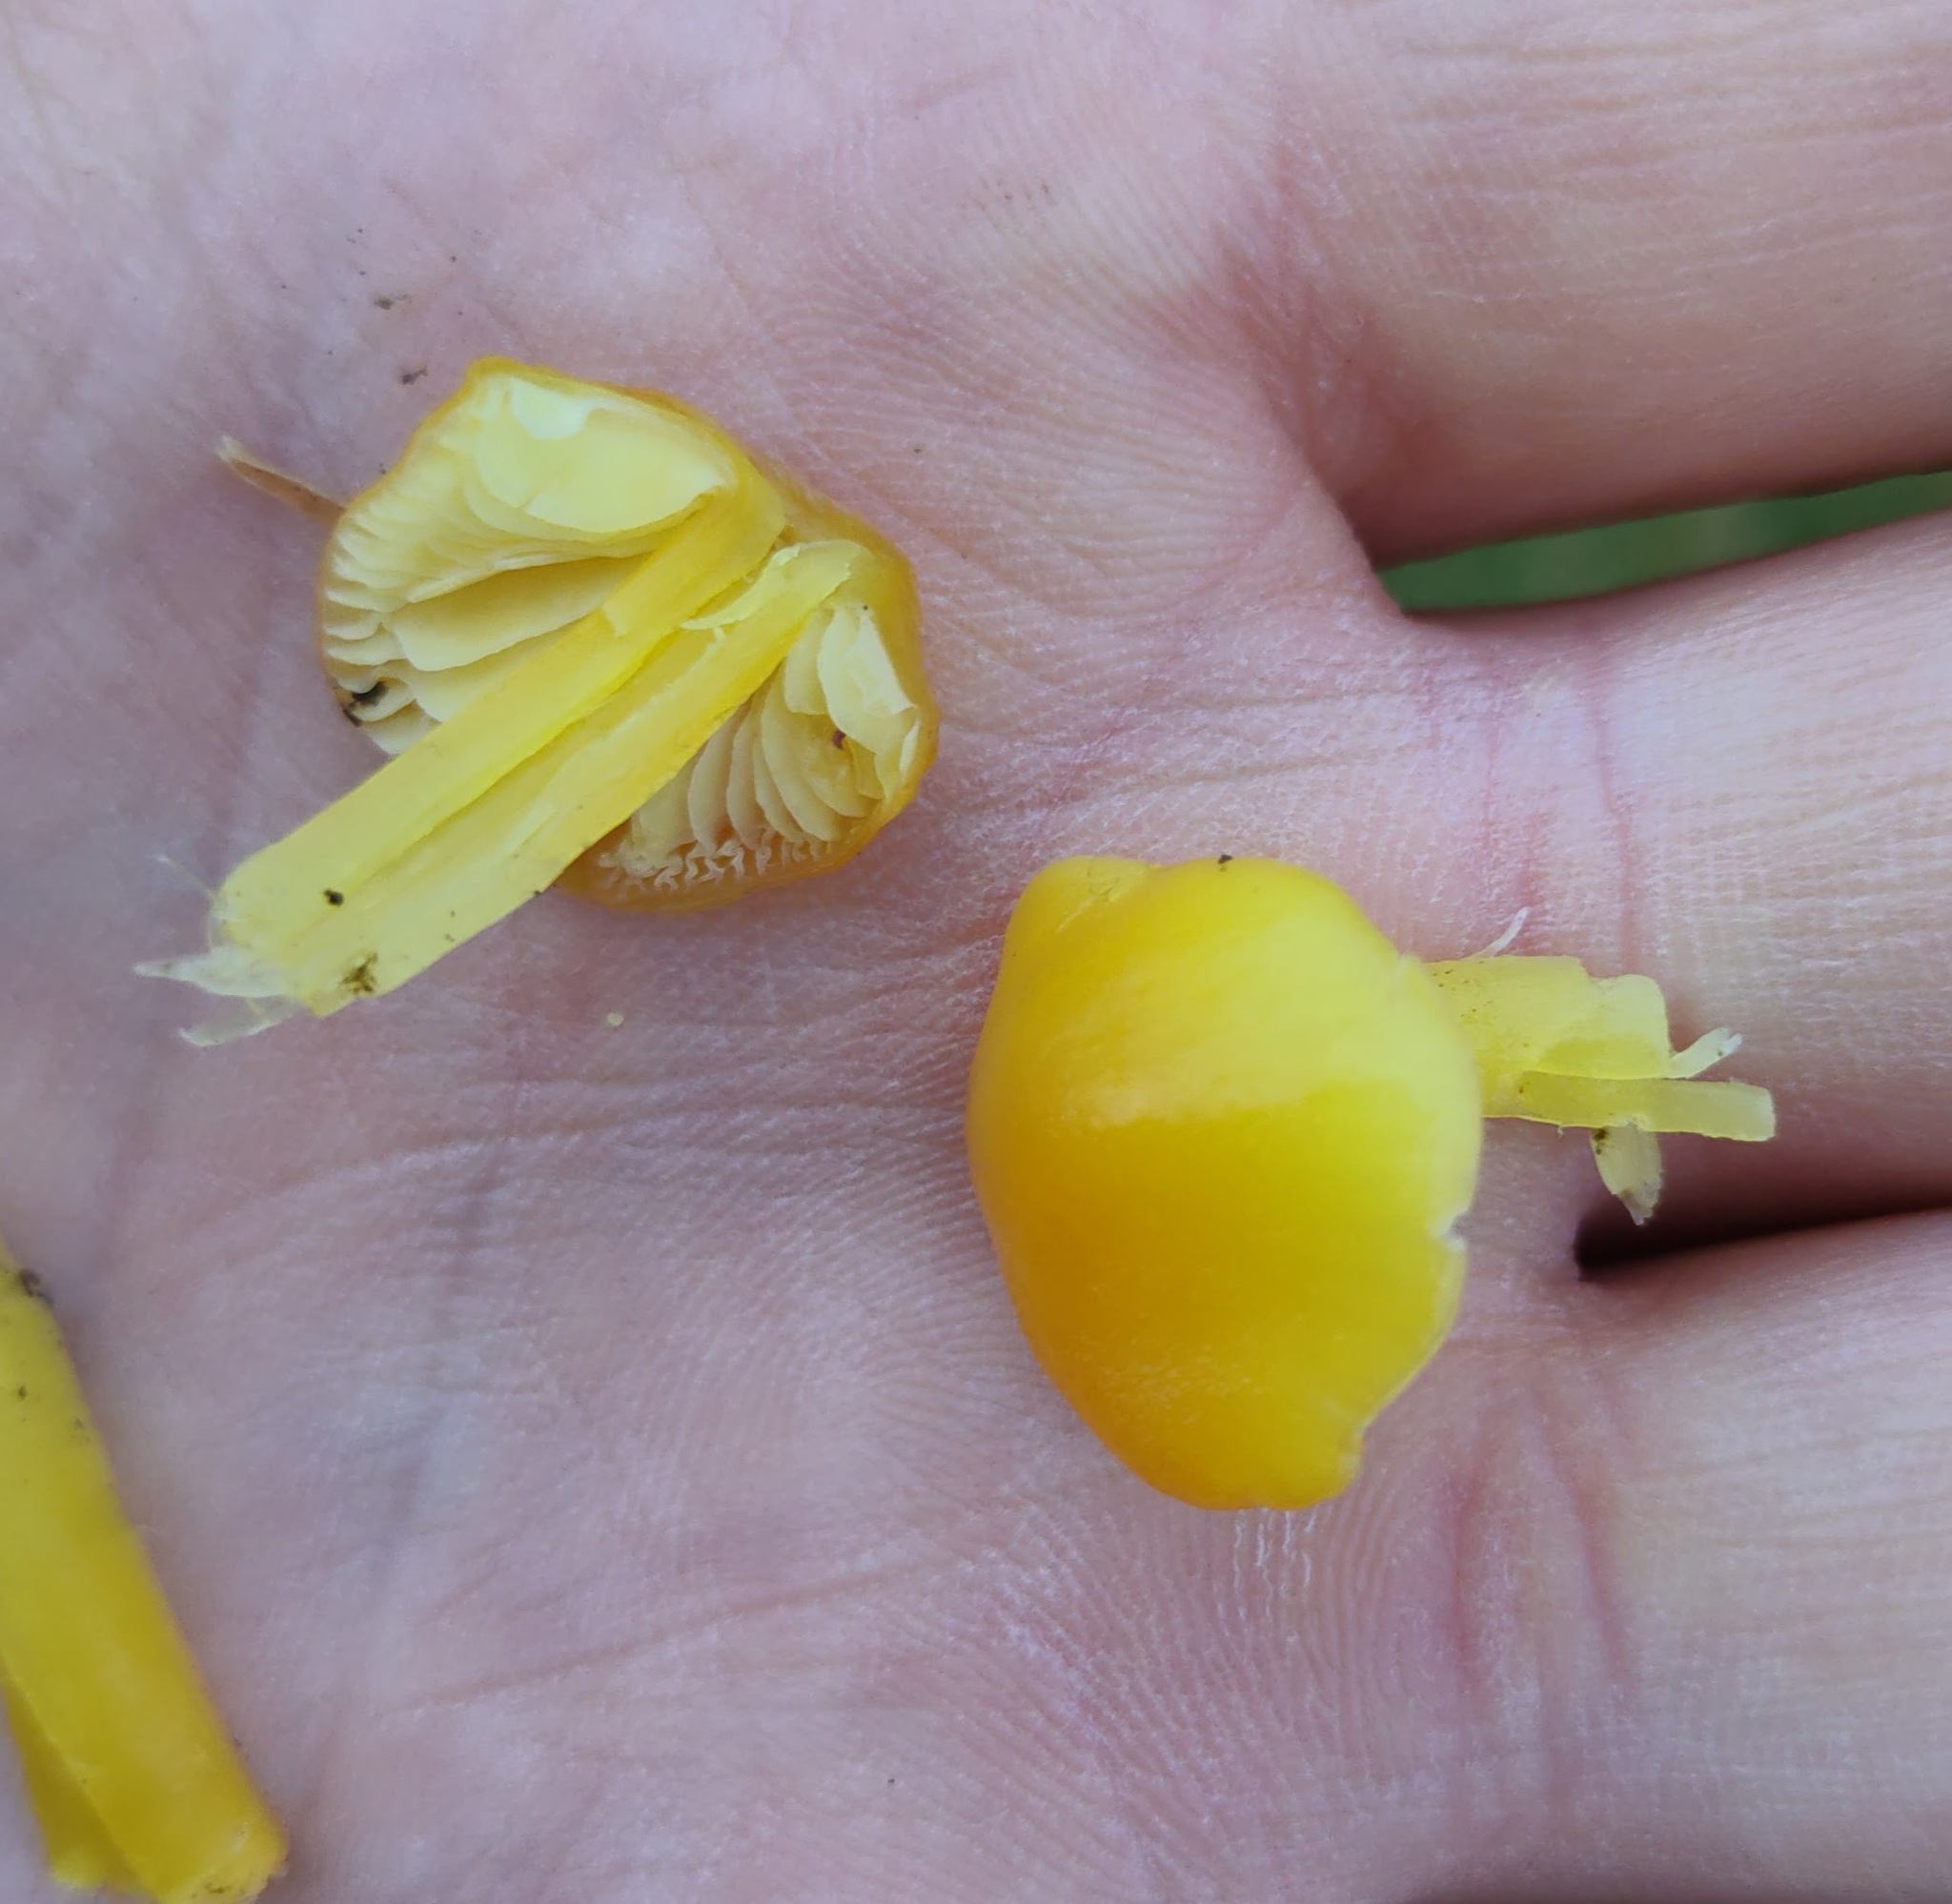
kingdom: Fungi
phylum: Basidiomycota
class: Agaricomycetes
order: Agaricales
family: Hygrophoraceae
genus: Hygrocybe
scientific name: Hygrocybe chlorophana
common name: Golden waxcap
